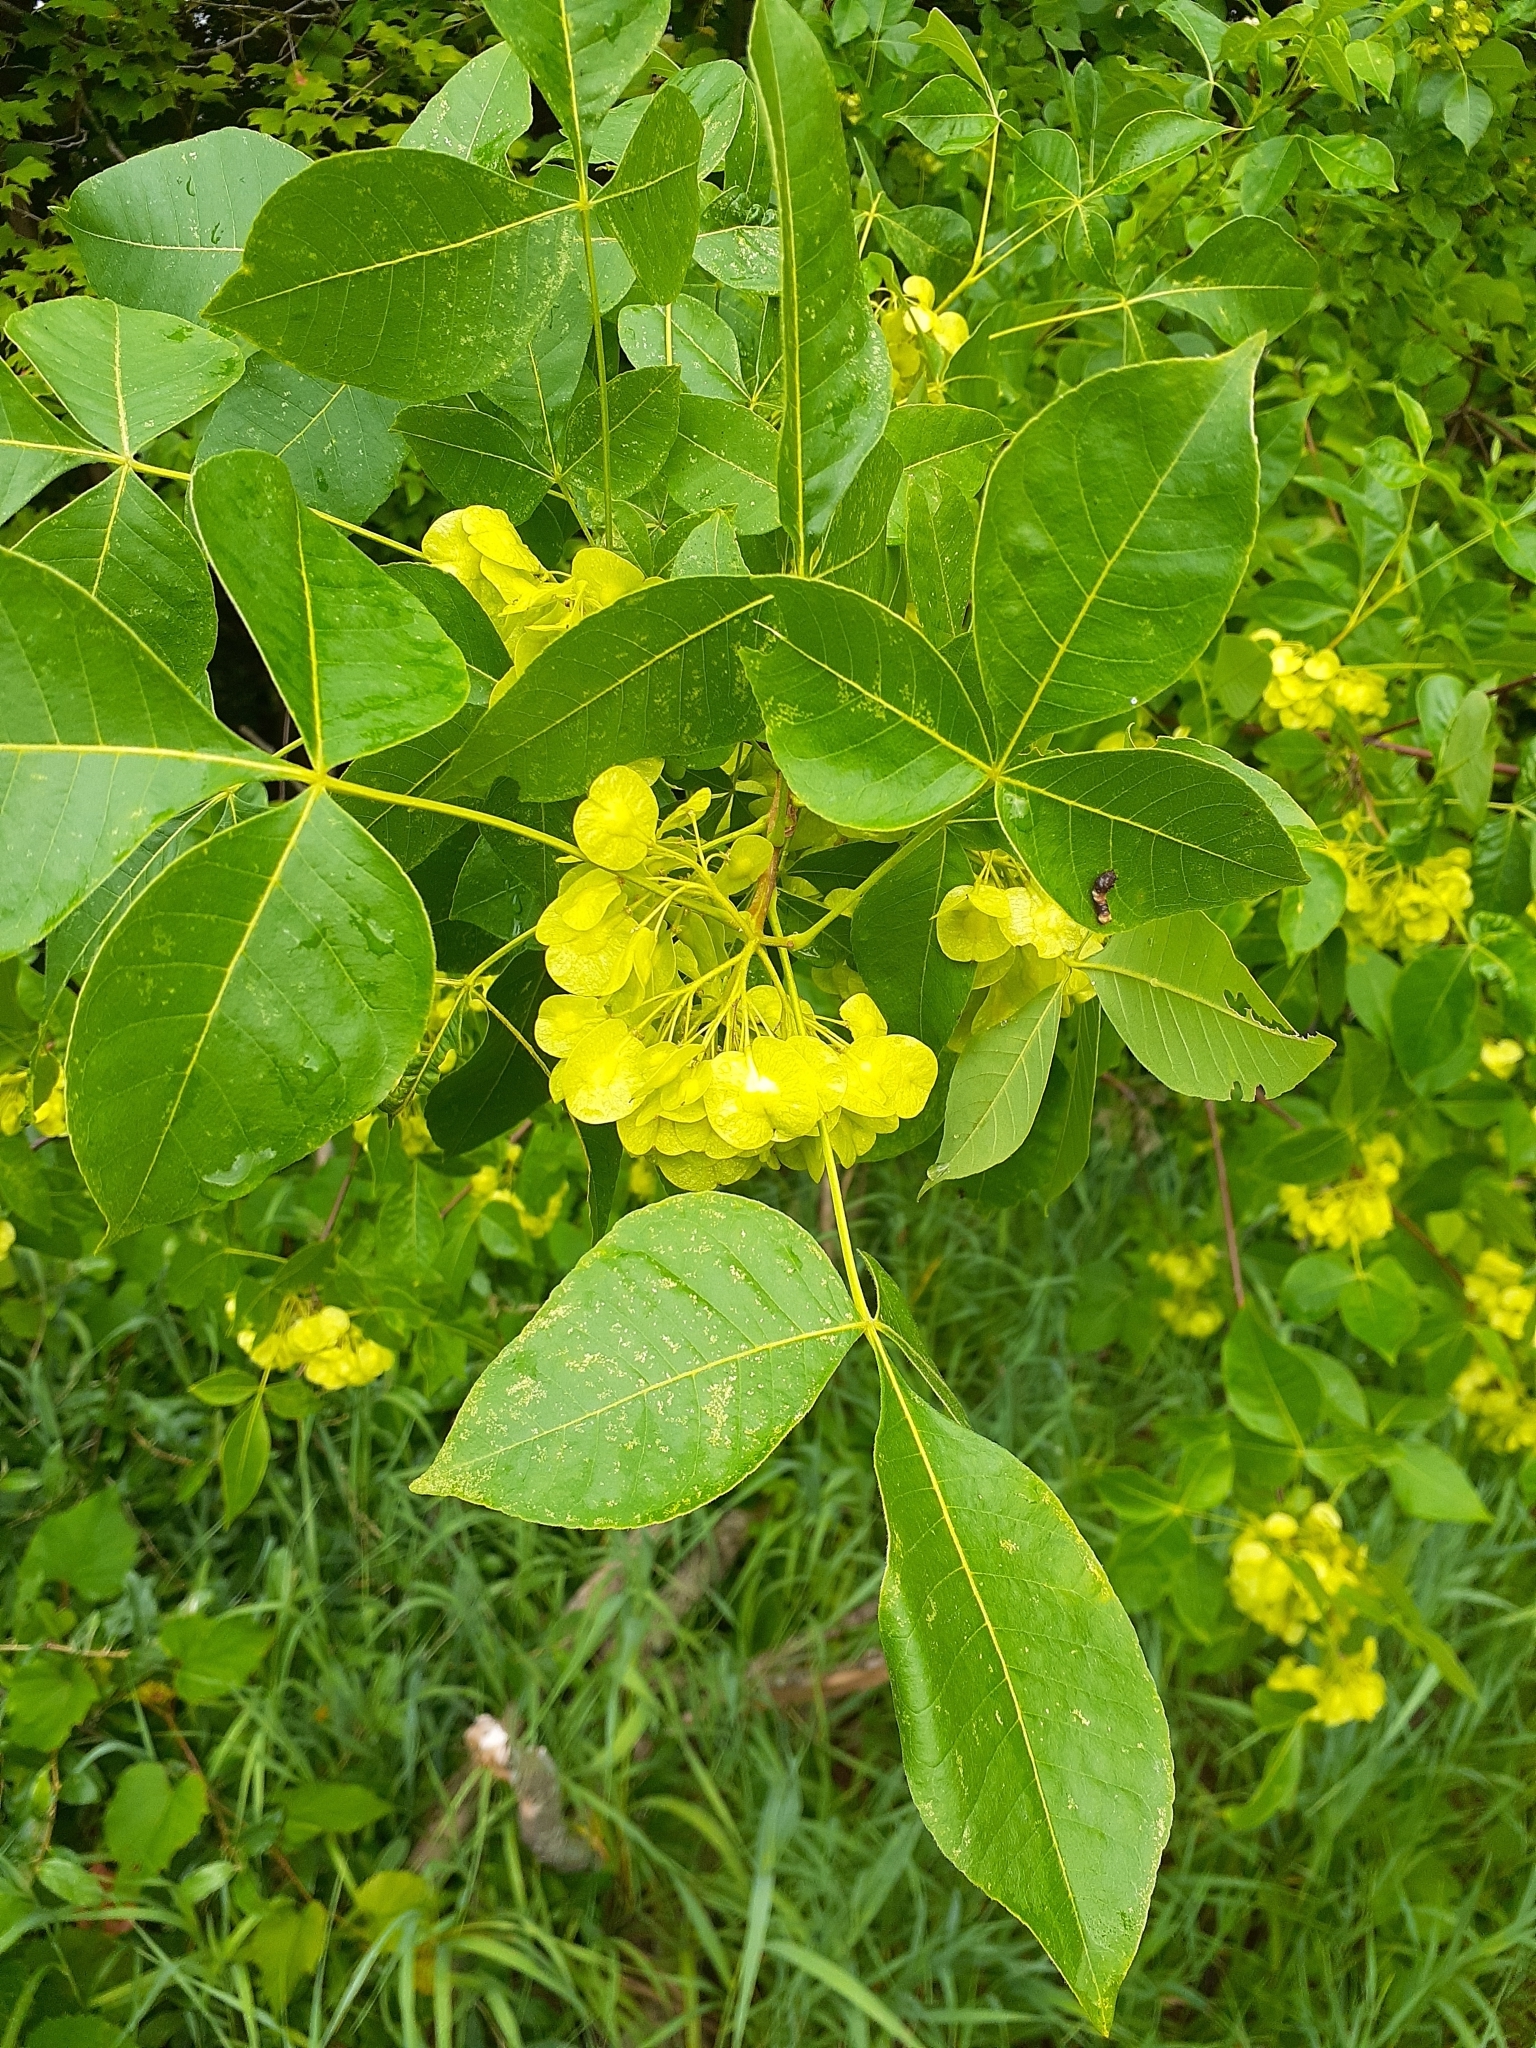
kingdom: Plantae
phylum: Tracheophyta
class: Magnoliopsida
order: Sapindales
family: Rutaceae
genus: Ptelea
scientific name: Ptelea trifoliata
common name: Common hop-tree
